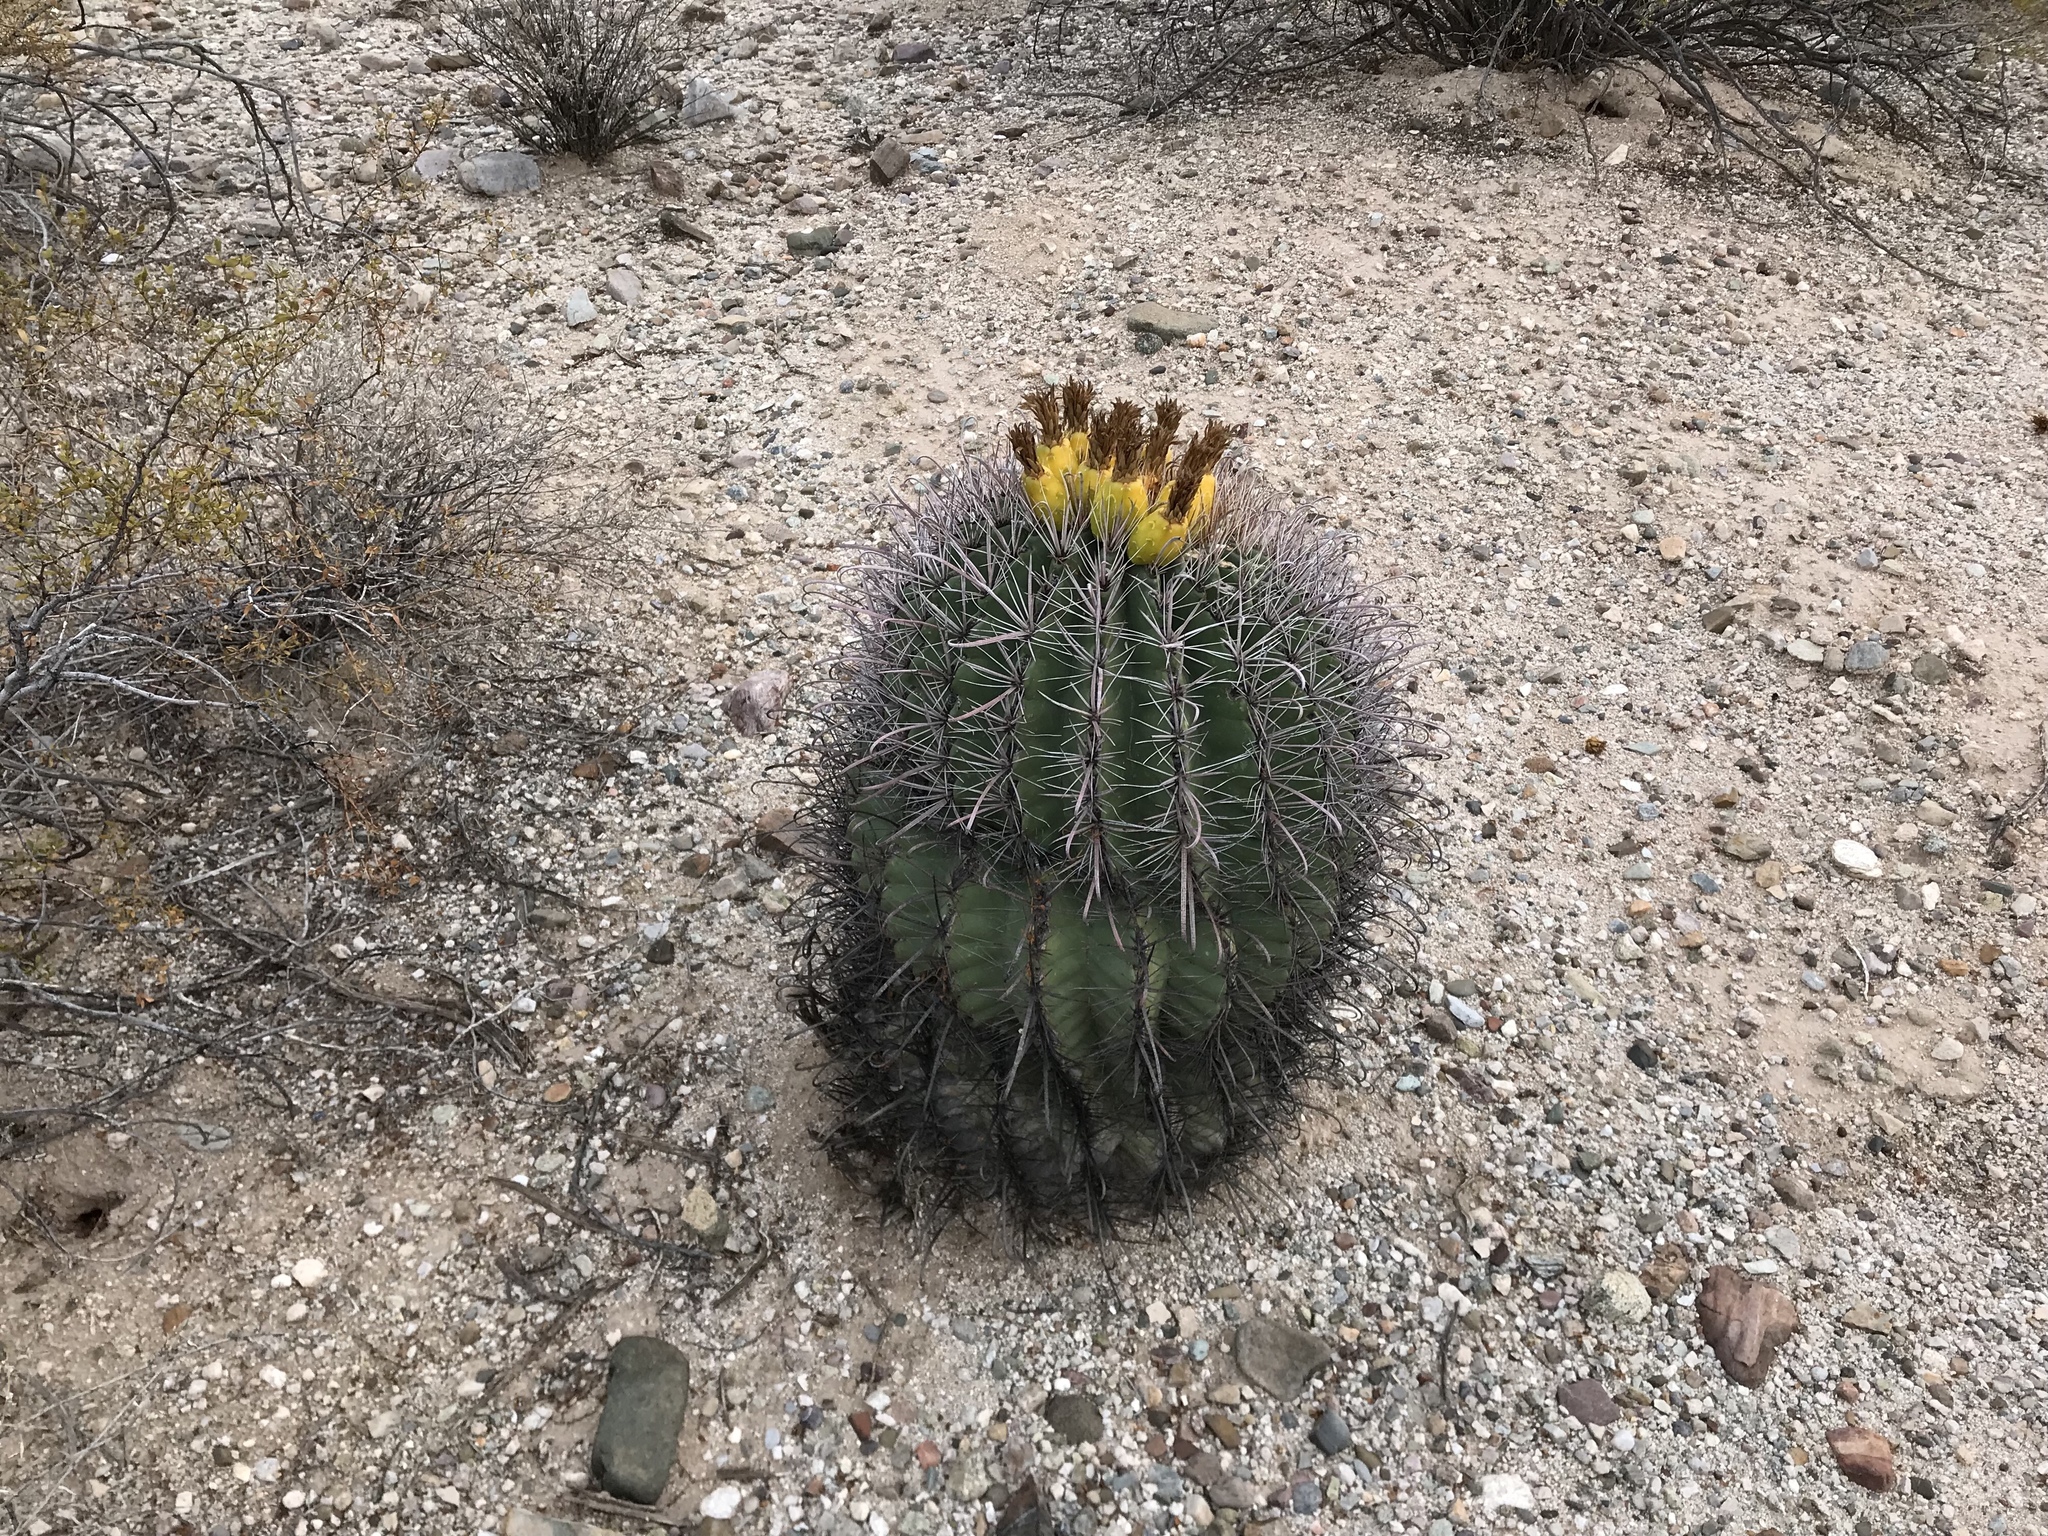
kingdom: Plantae
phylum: Tracheophyta
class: Magnoliopsida
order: Caryophyllales
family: Cactaceae
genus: Ferocactus
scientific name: Ferocactus wislizeni
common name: Candy barrel cactus
